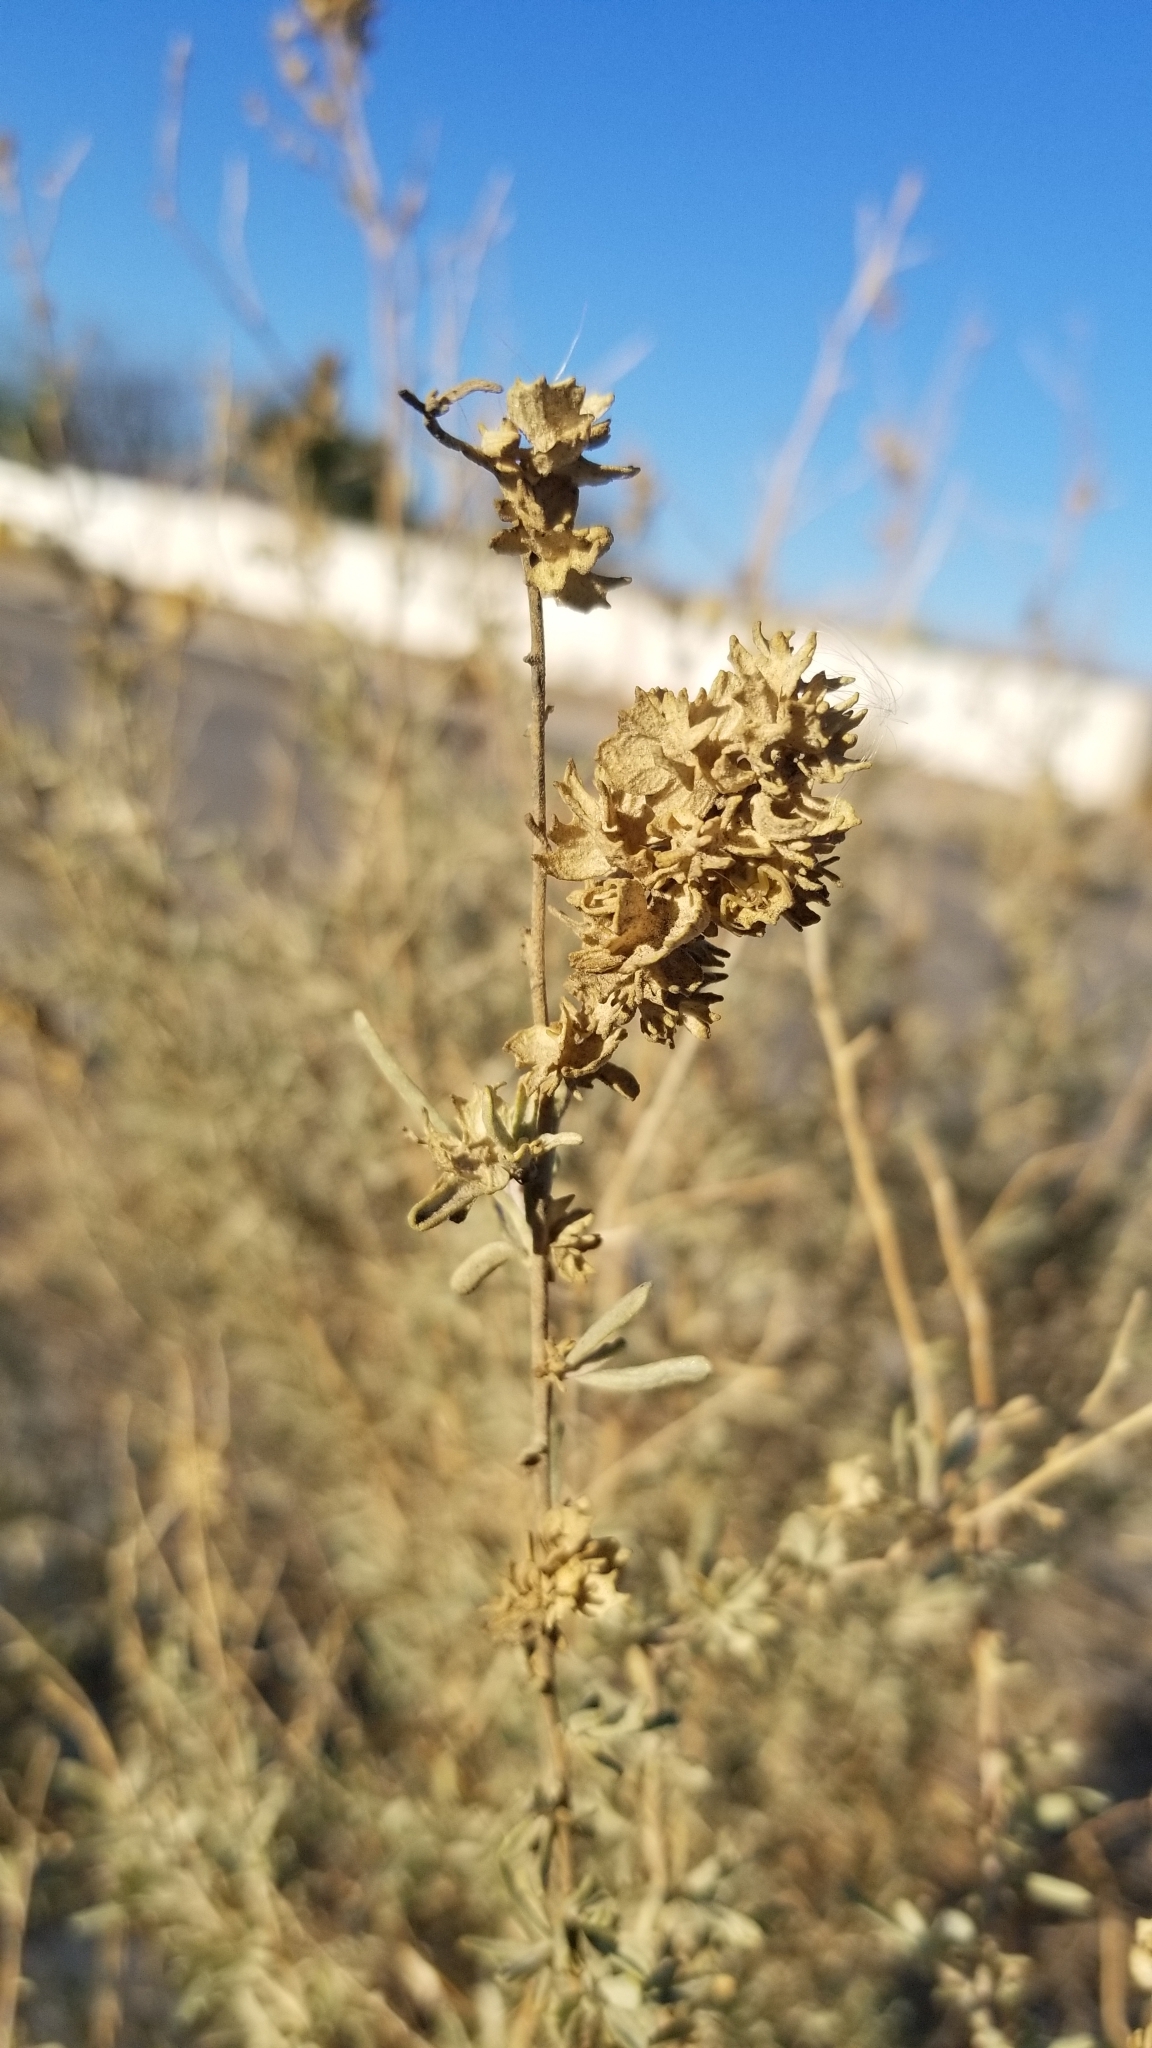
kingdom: Plantae
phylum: Tracheophyta
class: Magnoliopsida
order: Caryophyllales
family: Amaranthaceae
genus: Atriplex
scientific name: Atriplex canescens
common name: Four-wing saltbush
